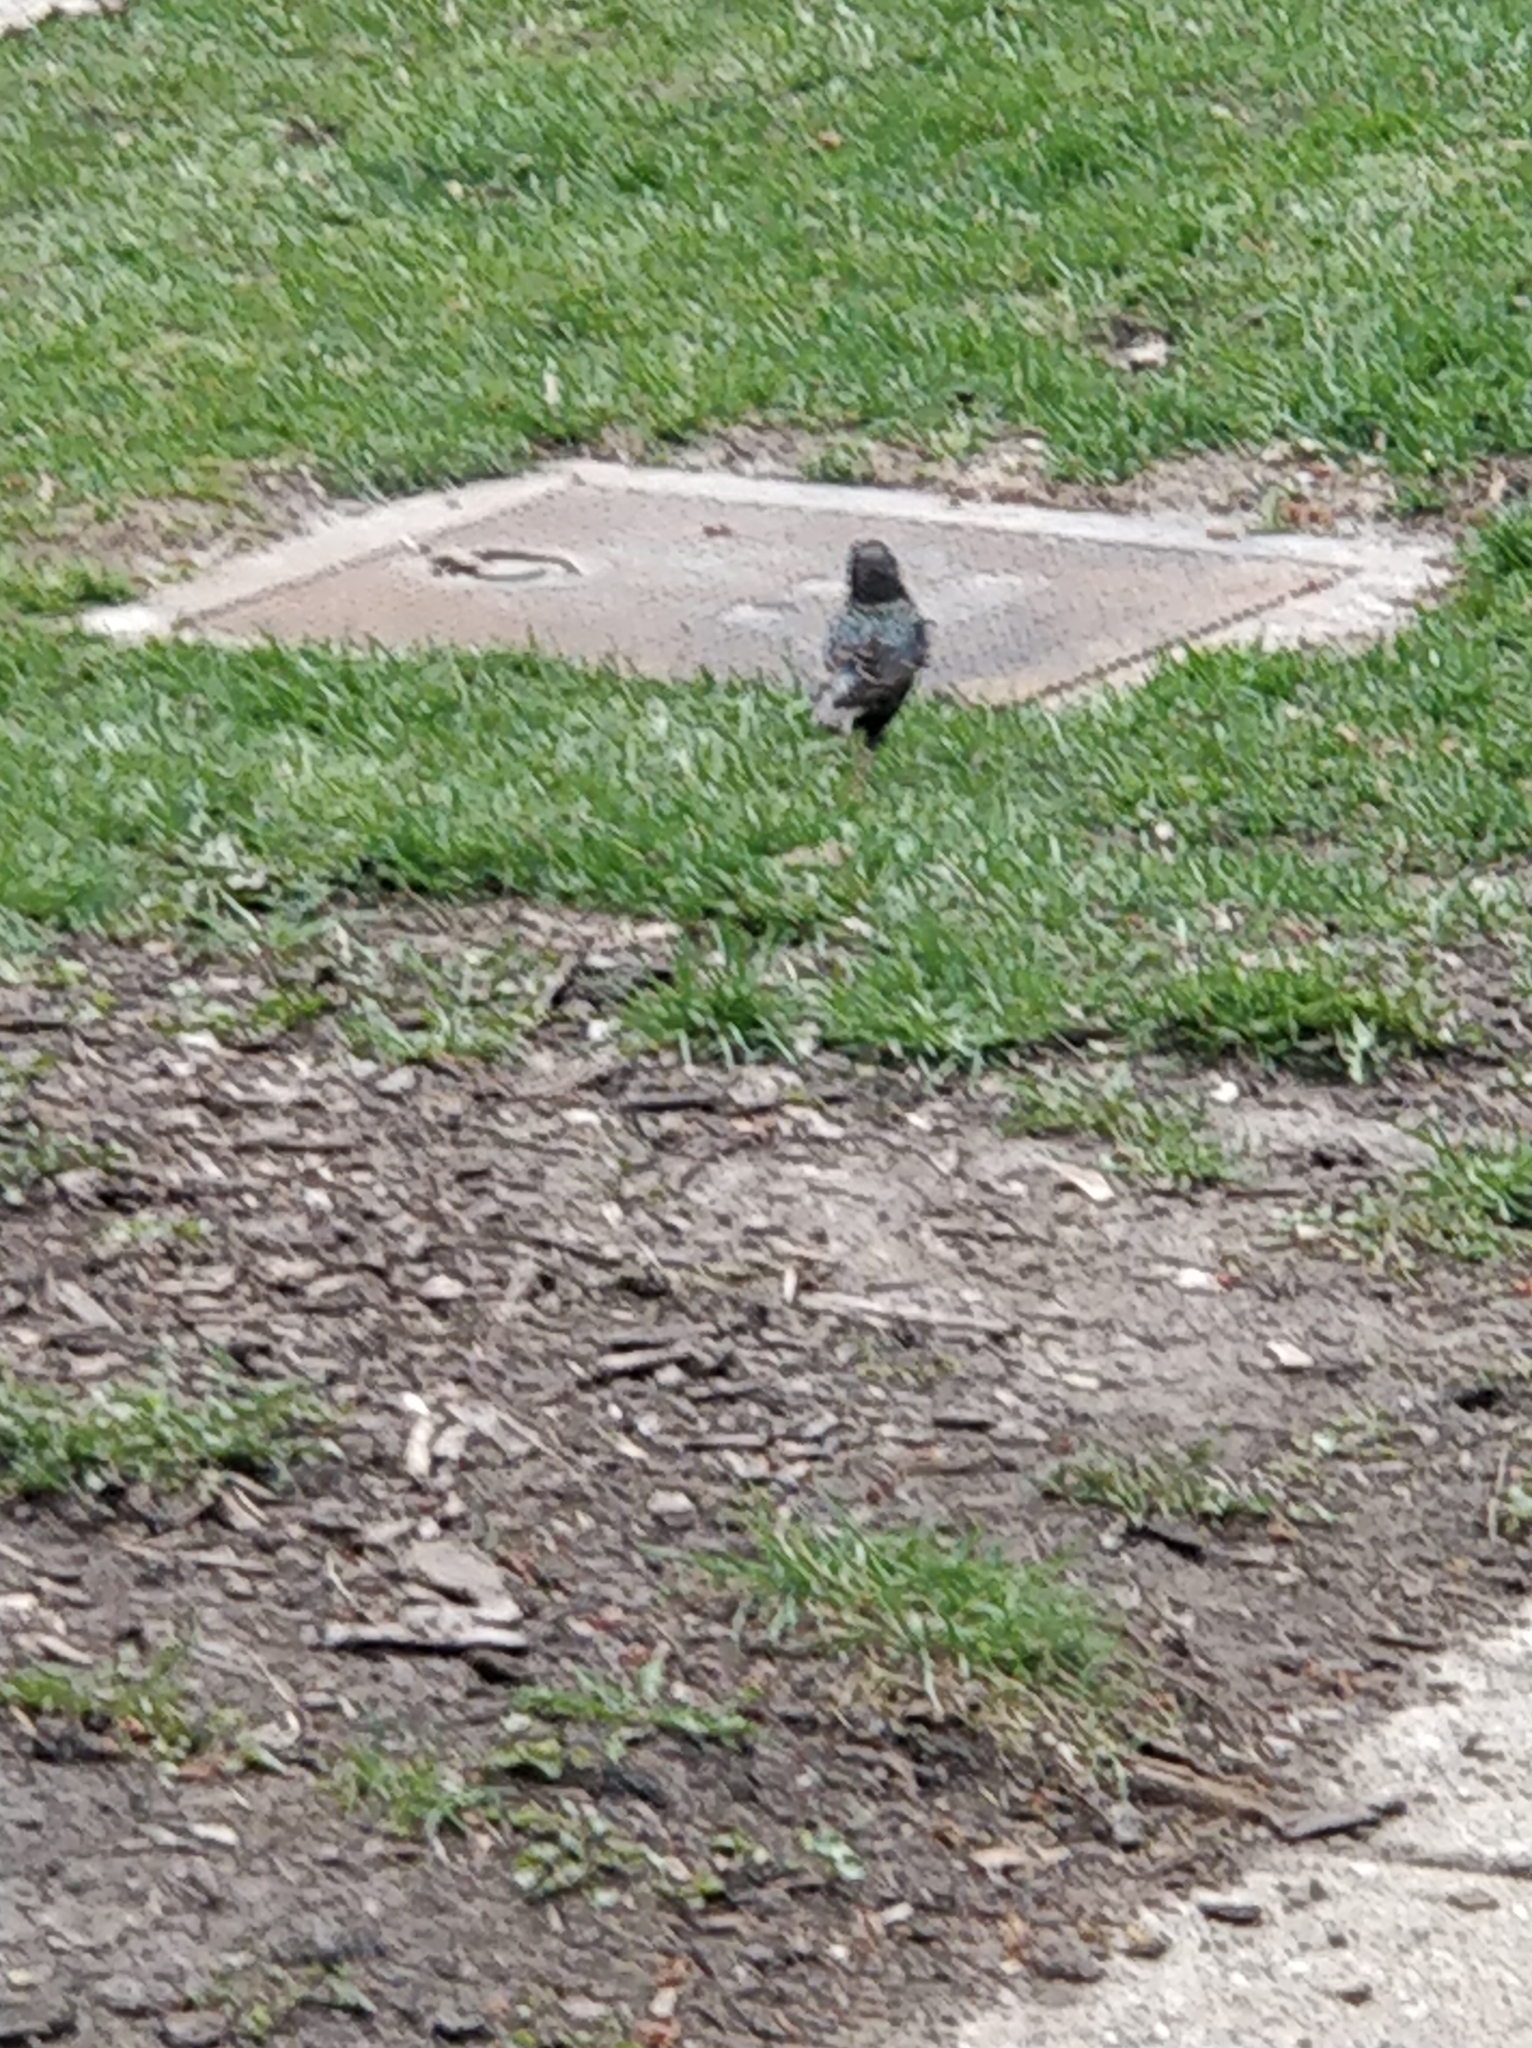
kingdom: Animalia
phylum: Chordata
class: Aves
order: Passeriformes
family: Sturnidae
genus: Sturnus
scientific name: Sturnus vulgaris
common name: Common starling
